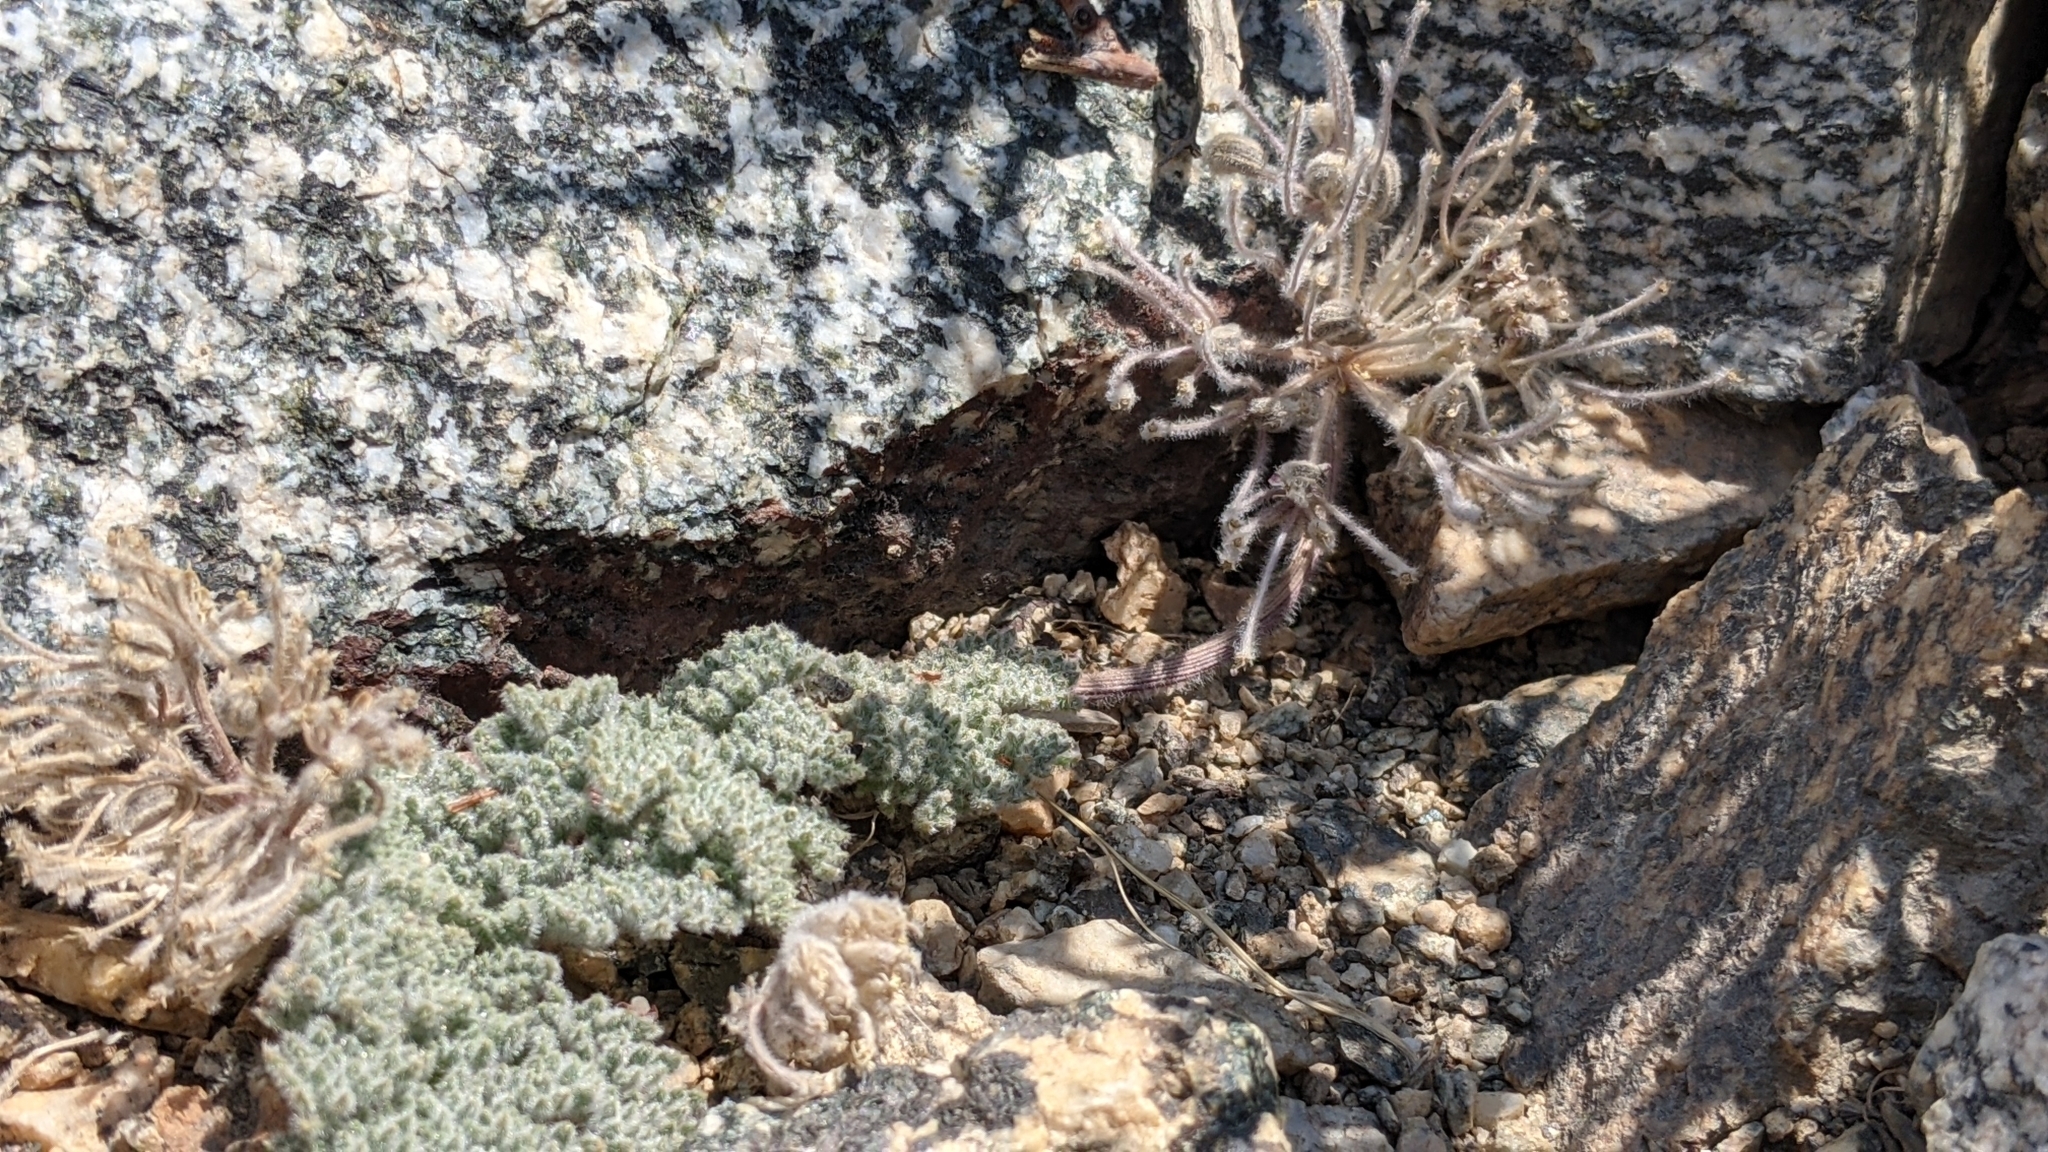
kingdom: Plantae
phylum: Tracheophyta
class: Magnoliopsida
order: Apiales
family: Apiaceae
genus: Oreonana
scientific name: Oreonana vestita
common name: Woolly mountain-parsley
